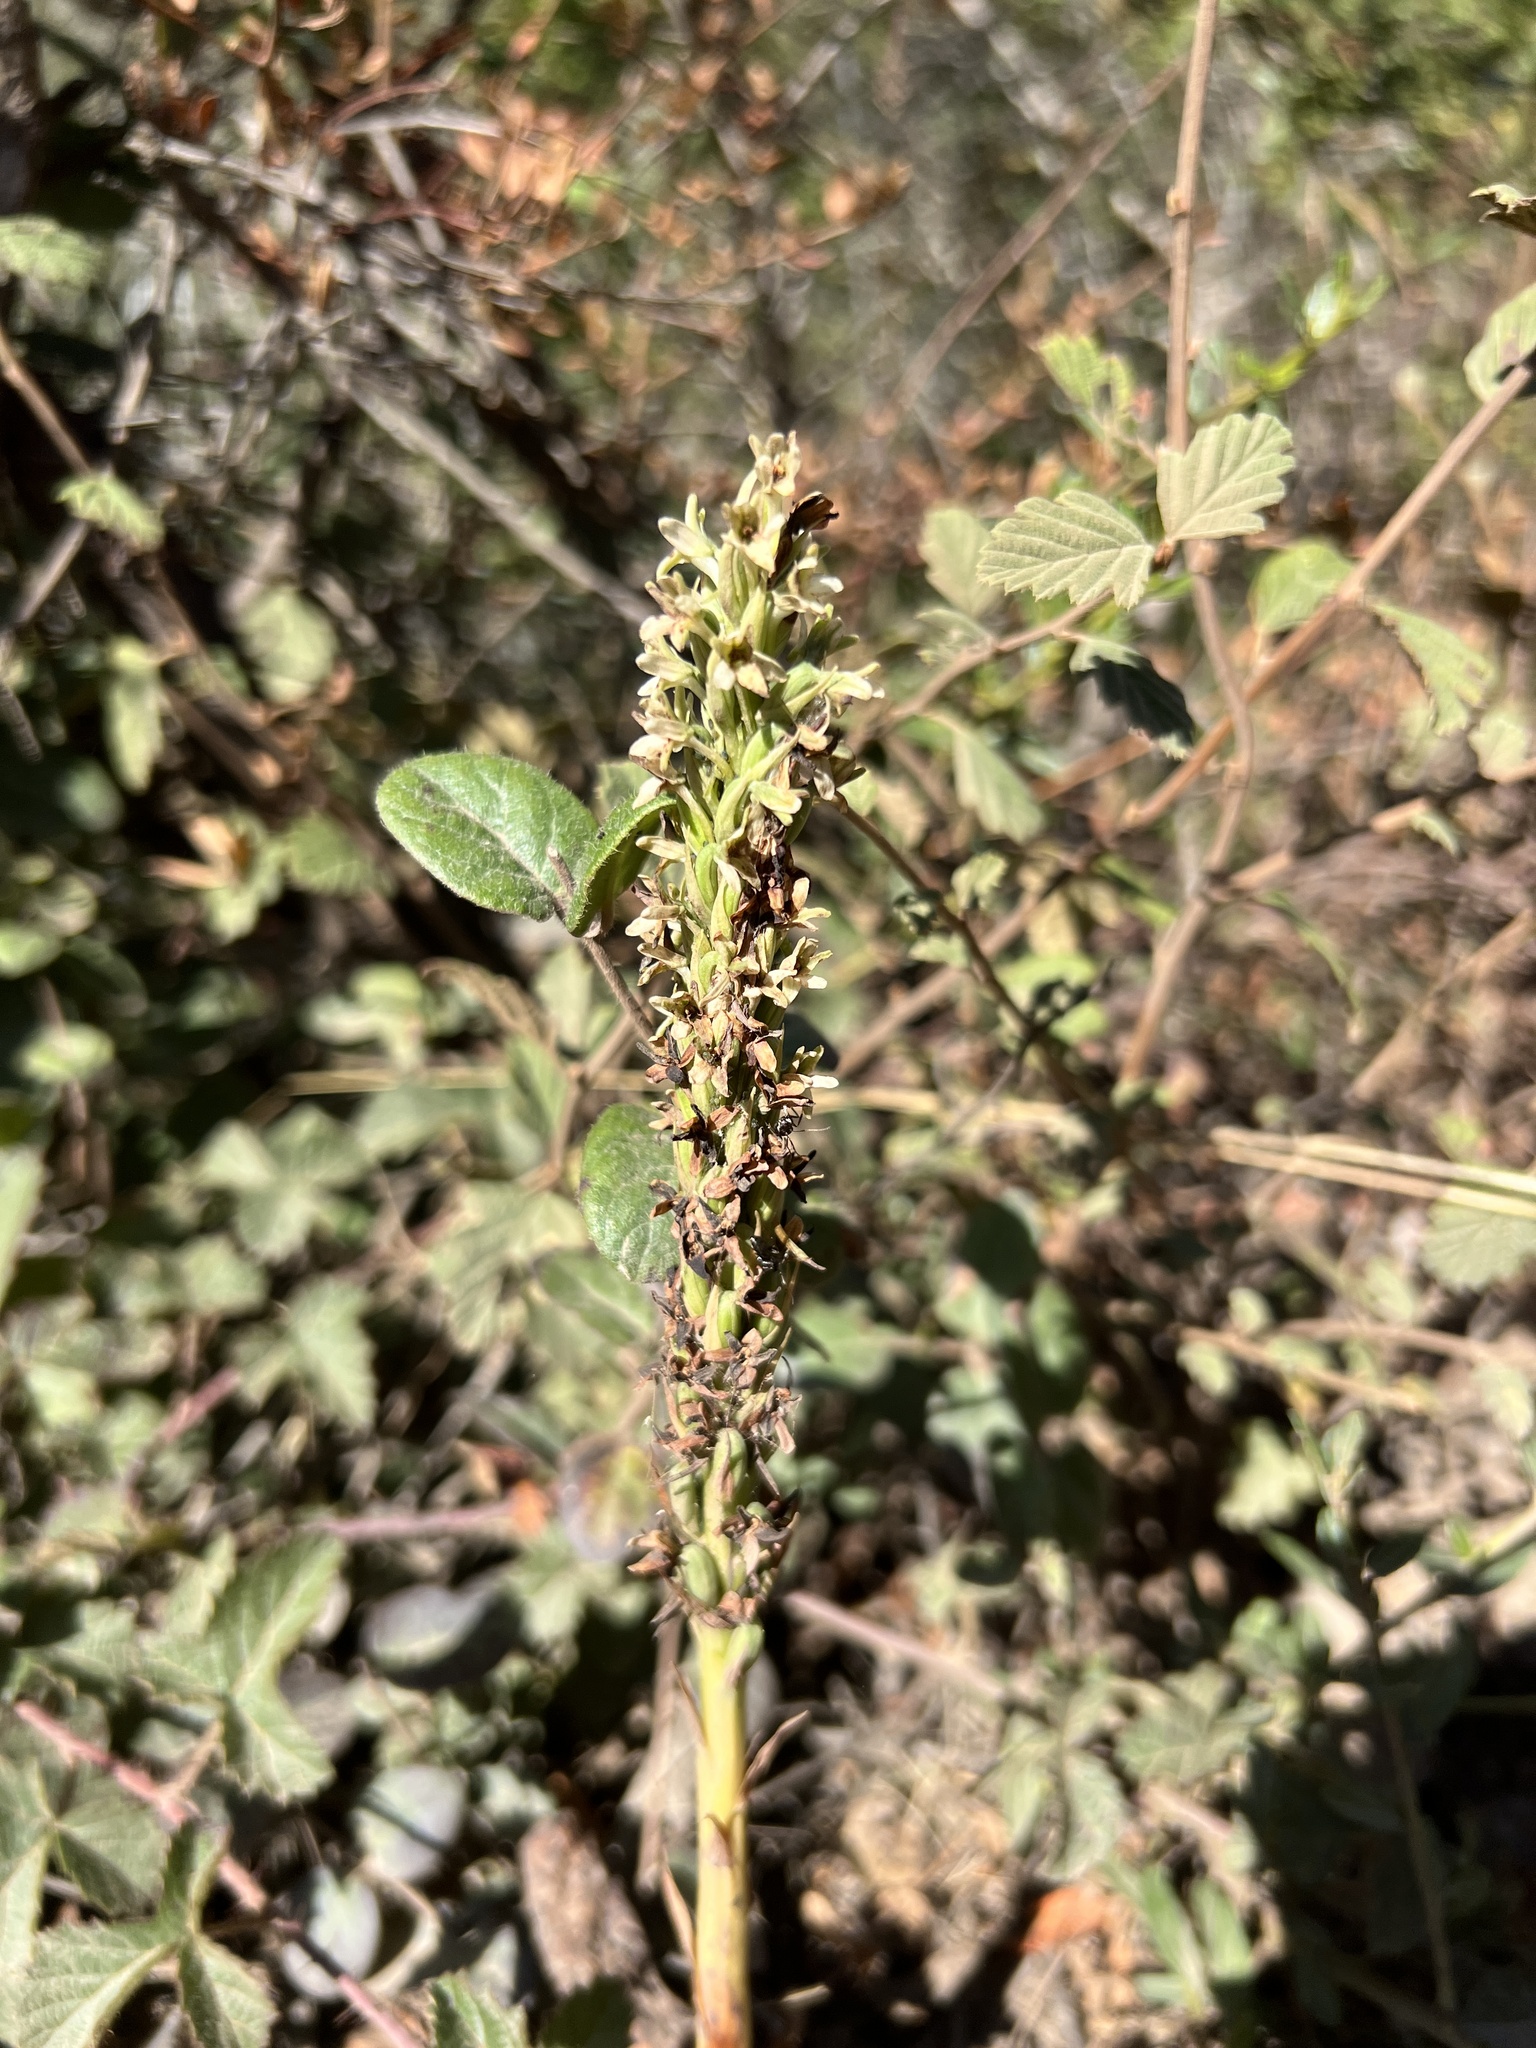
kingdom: Plantae
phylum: Tracheophyta
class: Liliopsida
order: Asparagales
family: Orchidaceae
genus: Platanthera
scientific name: Platanthera elegans
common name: Coast piperia
